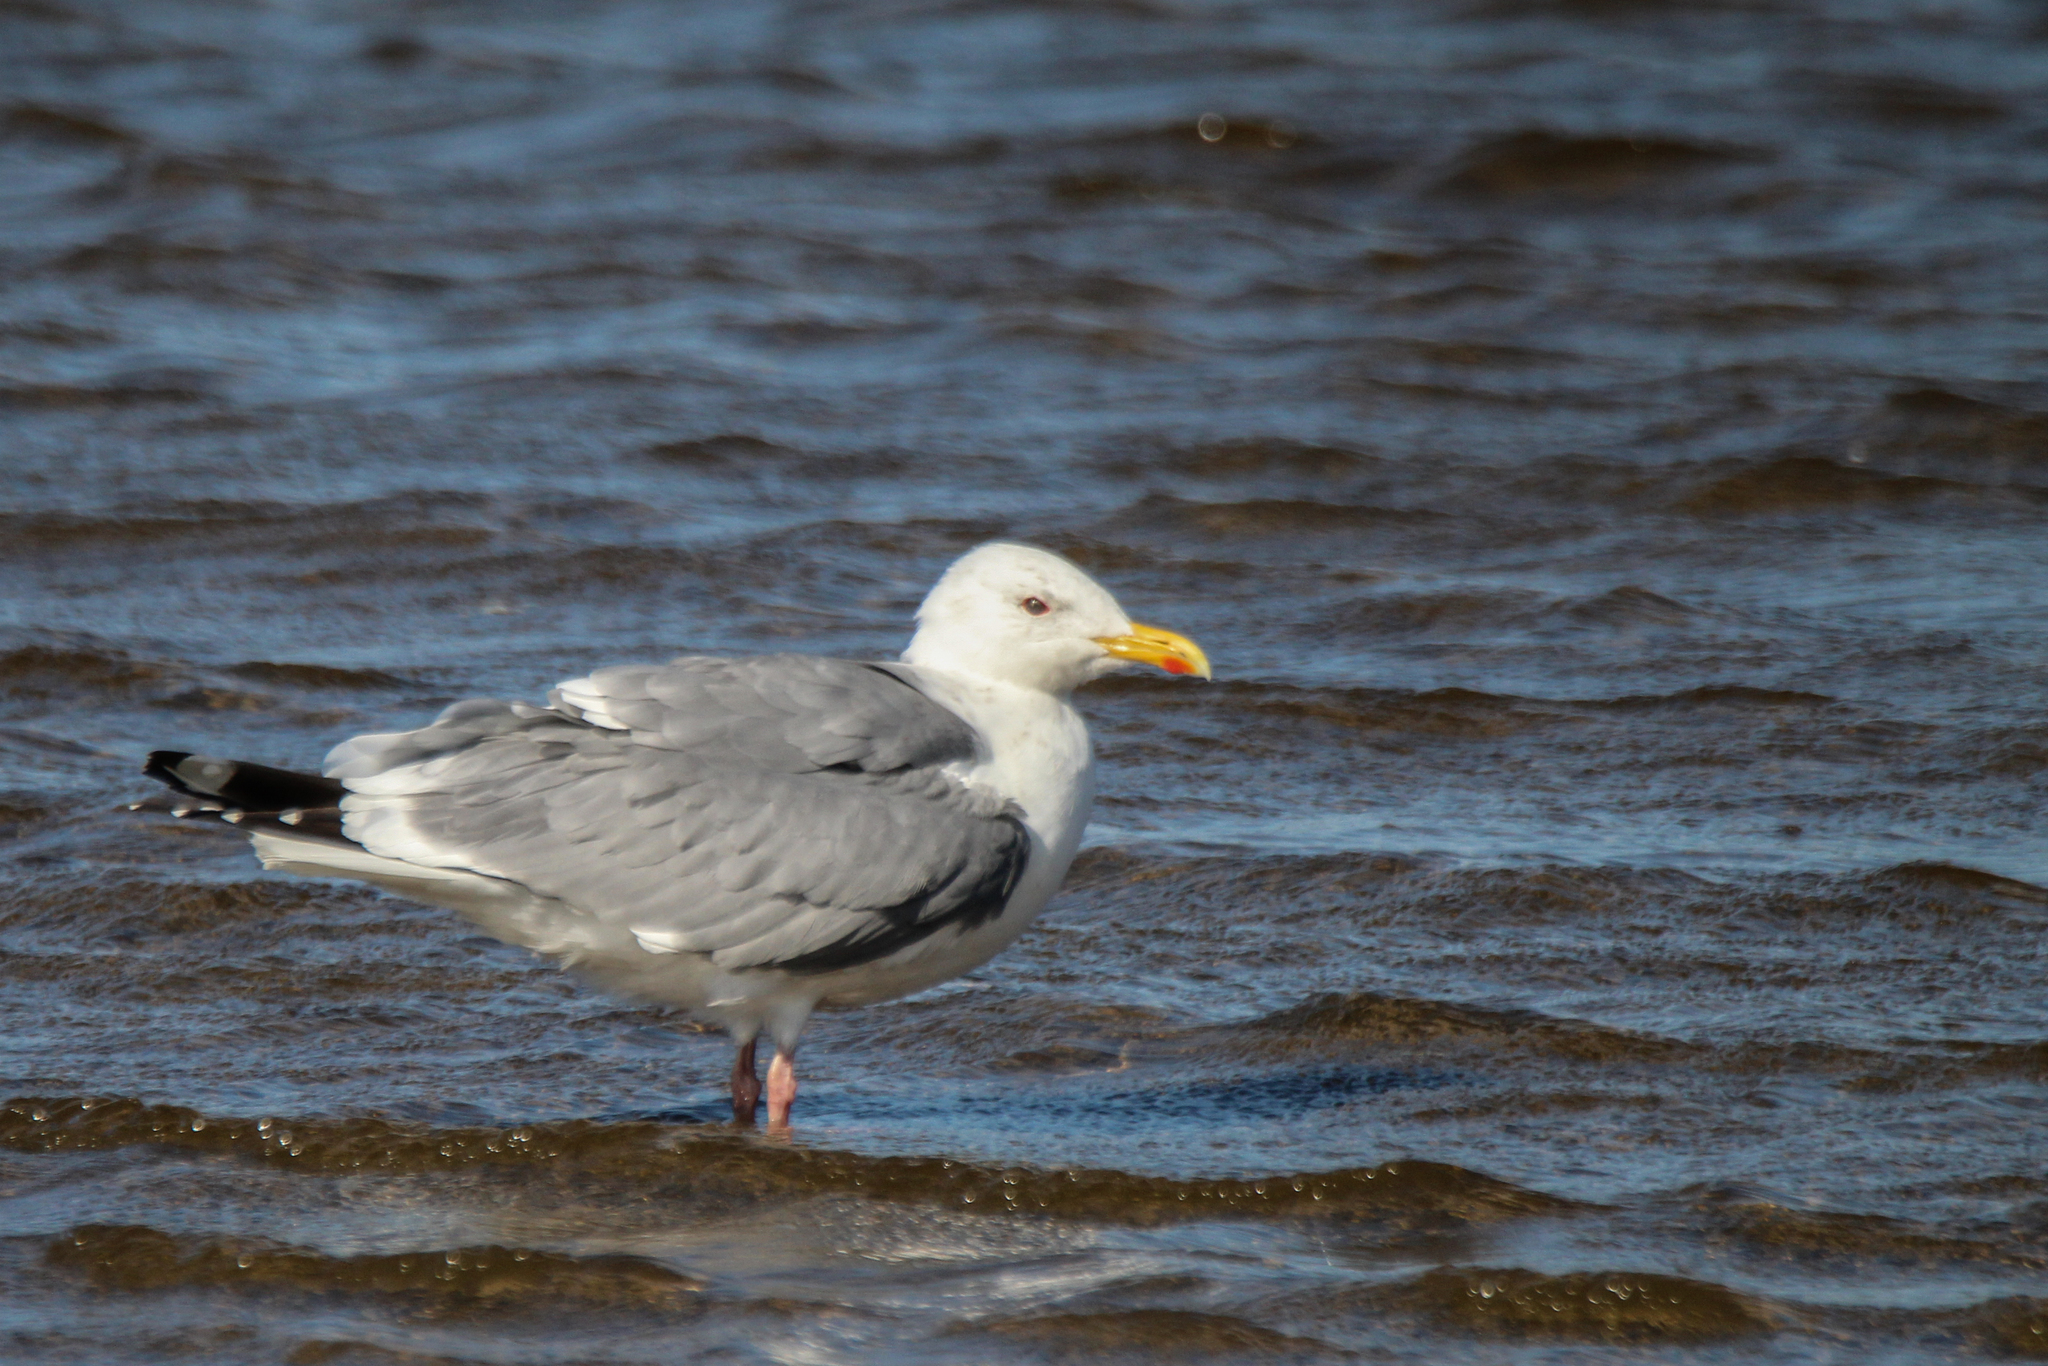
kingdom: Animalia
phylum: Chordata
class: Aves
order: Charadriiformes
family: Laridae
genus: Larus
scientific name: Larus vegae
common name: Vega gull
